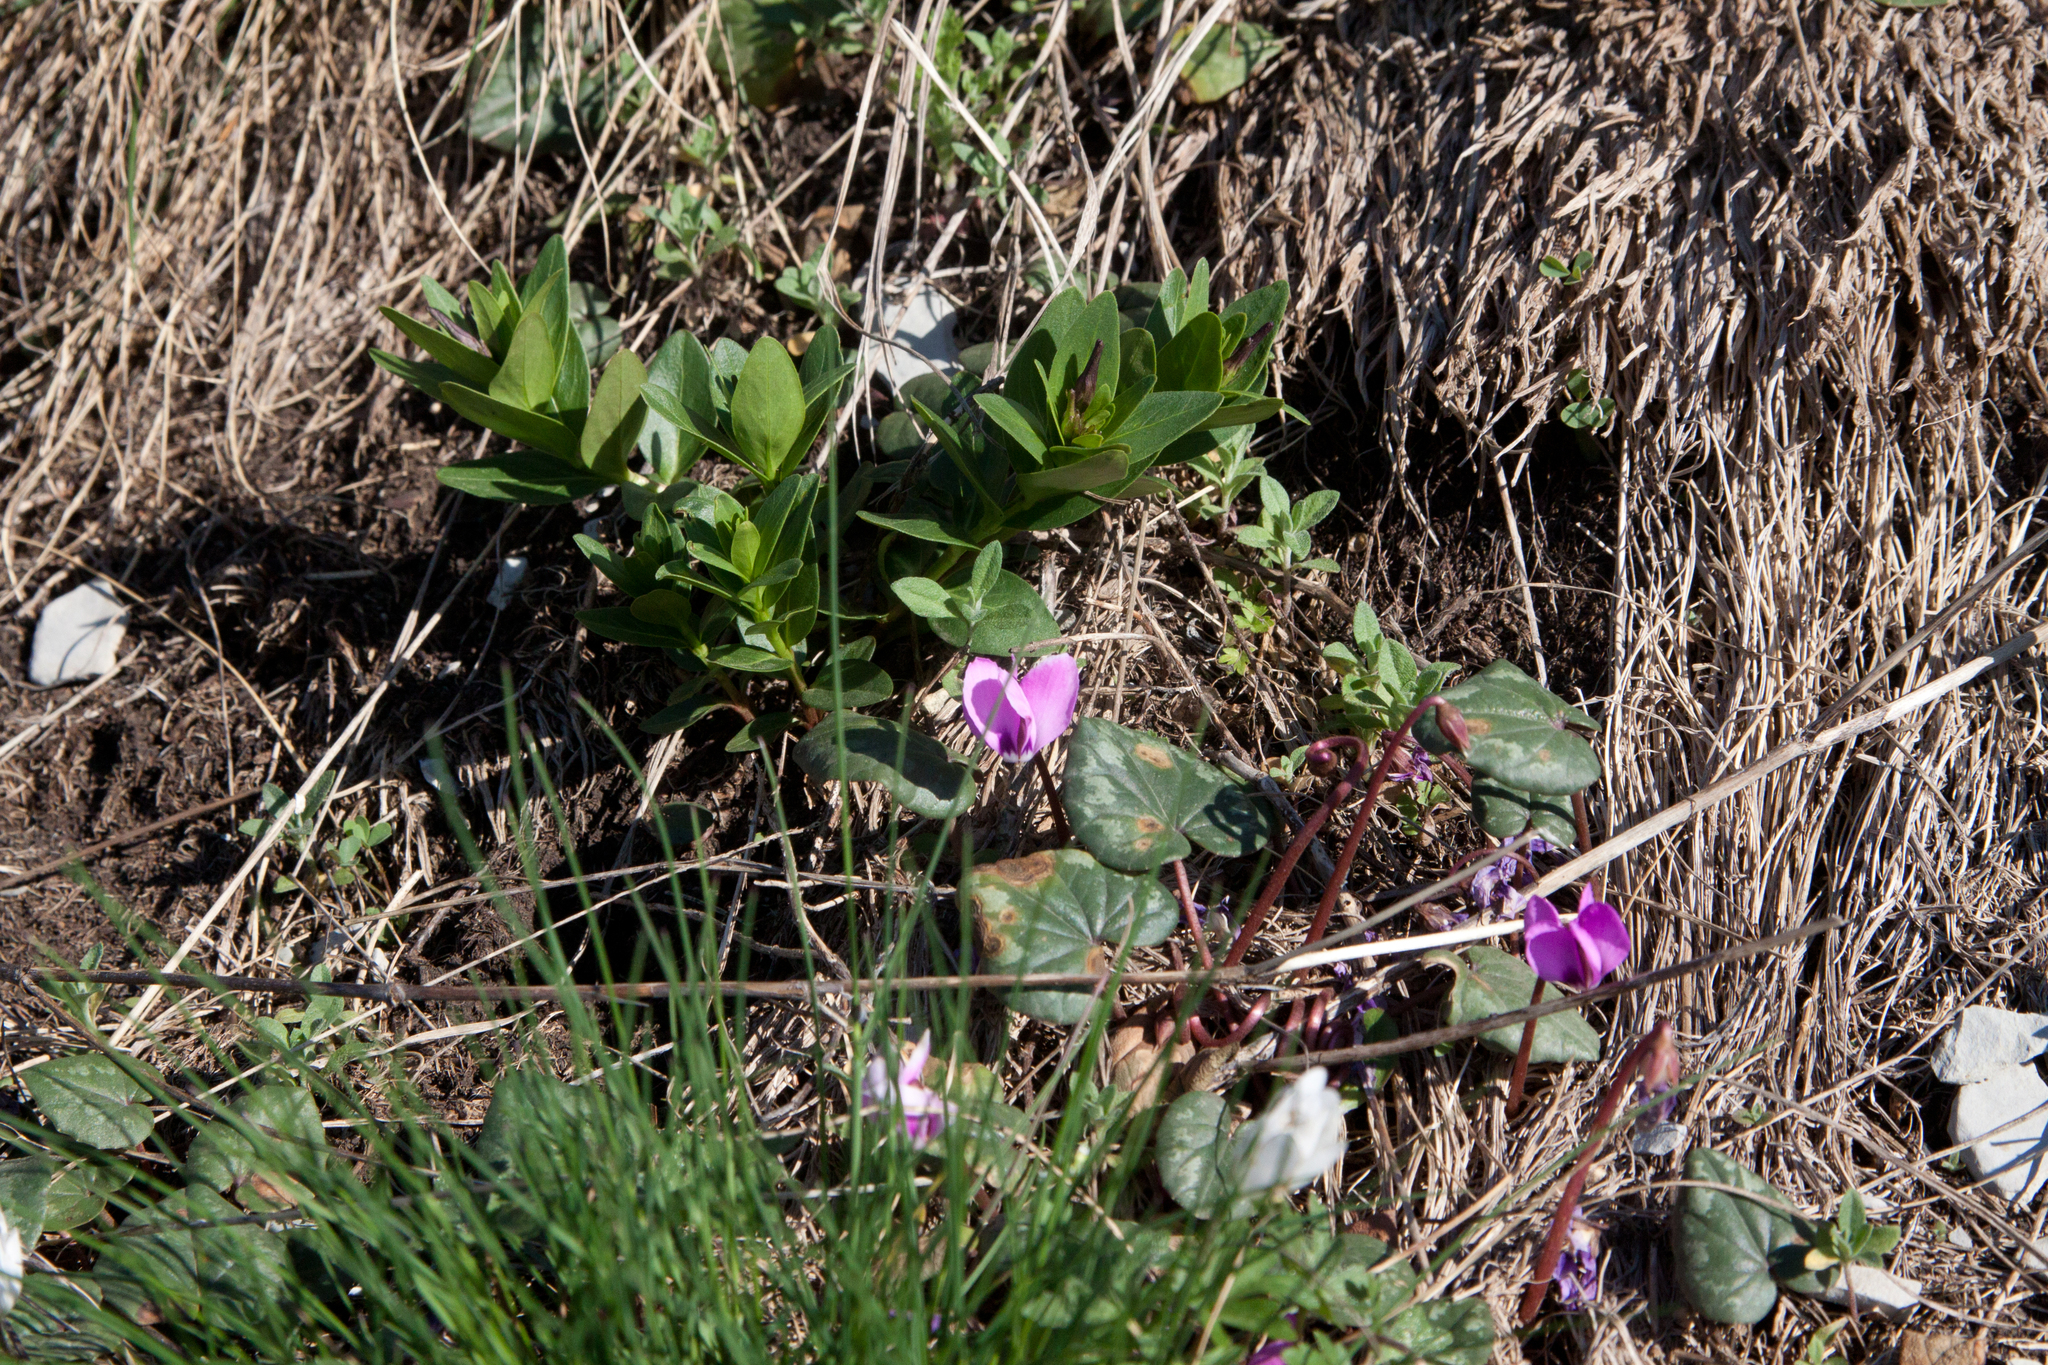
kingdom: Plantae
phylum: Tracheophyta
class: Magnoliopsida
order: Ericales
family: Primulaceae
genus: Cyclamen
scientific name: Cyclamen coum
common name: Eastern sowbread
